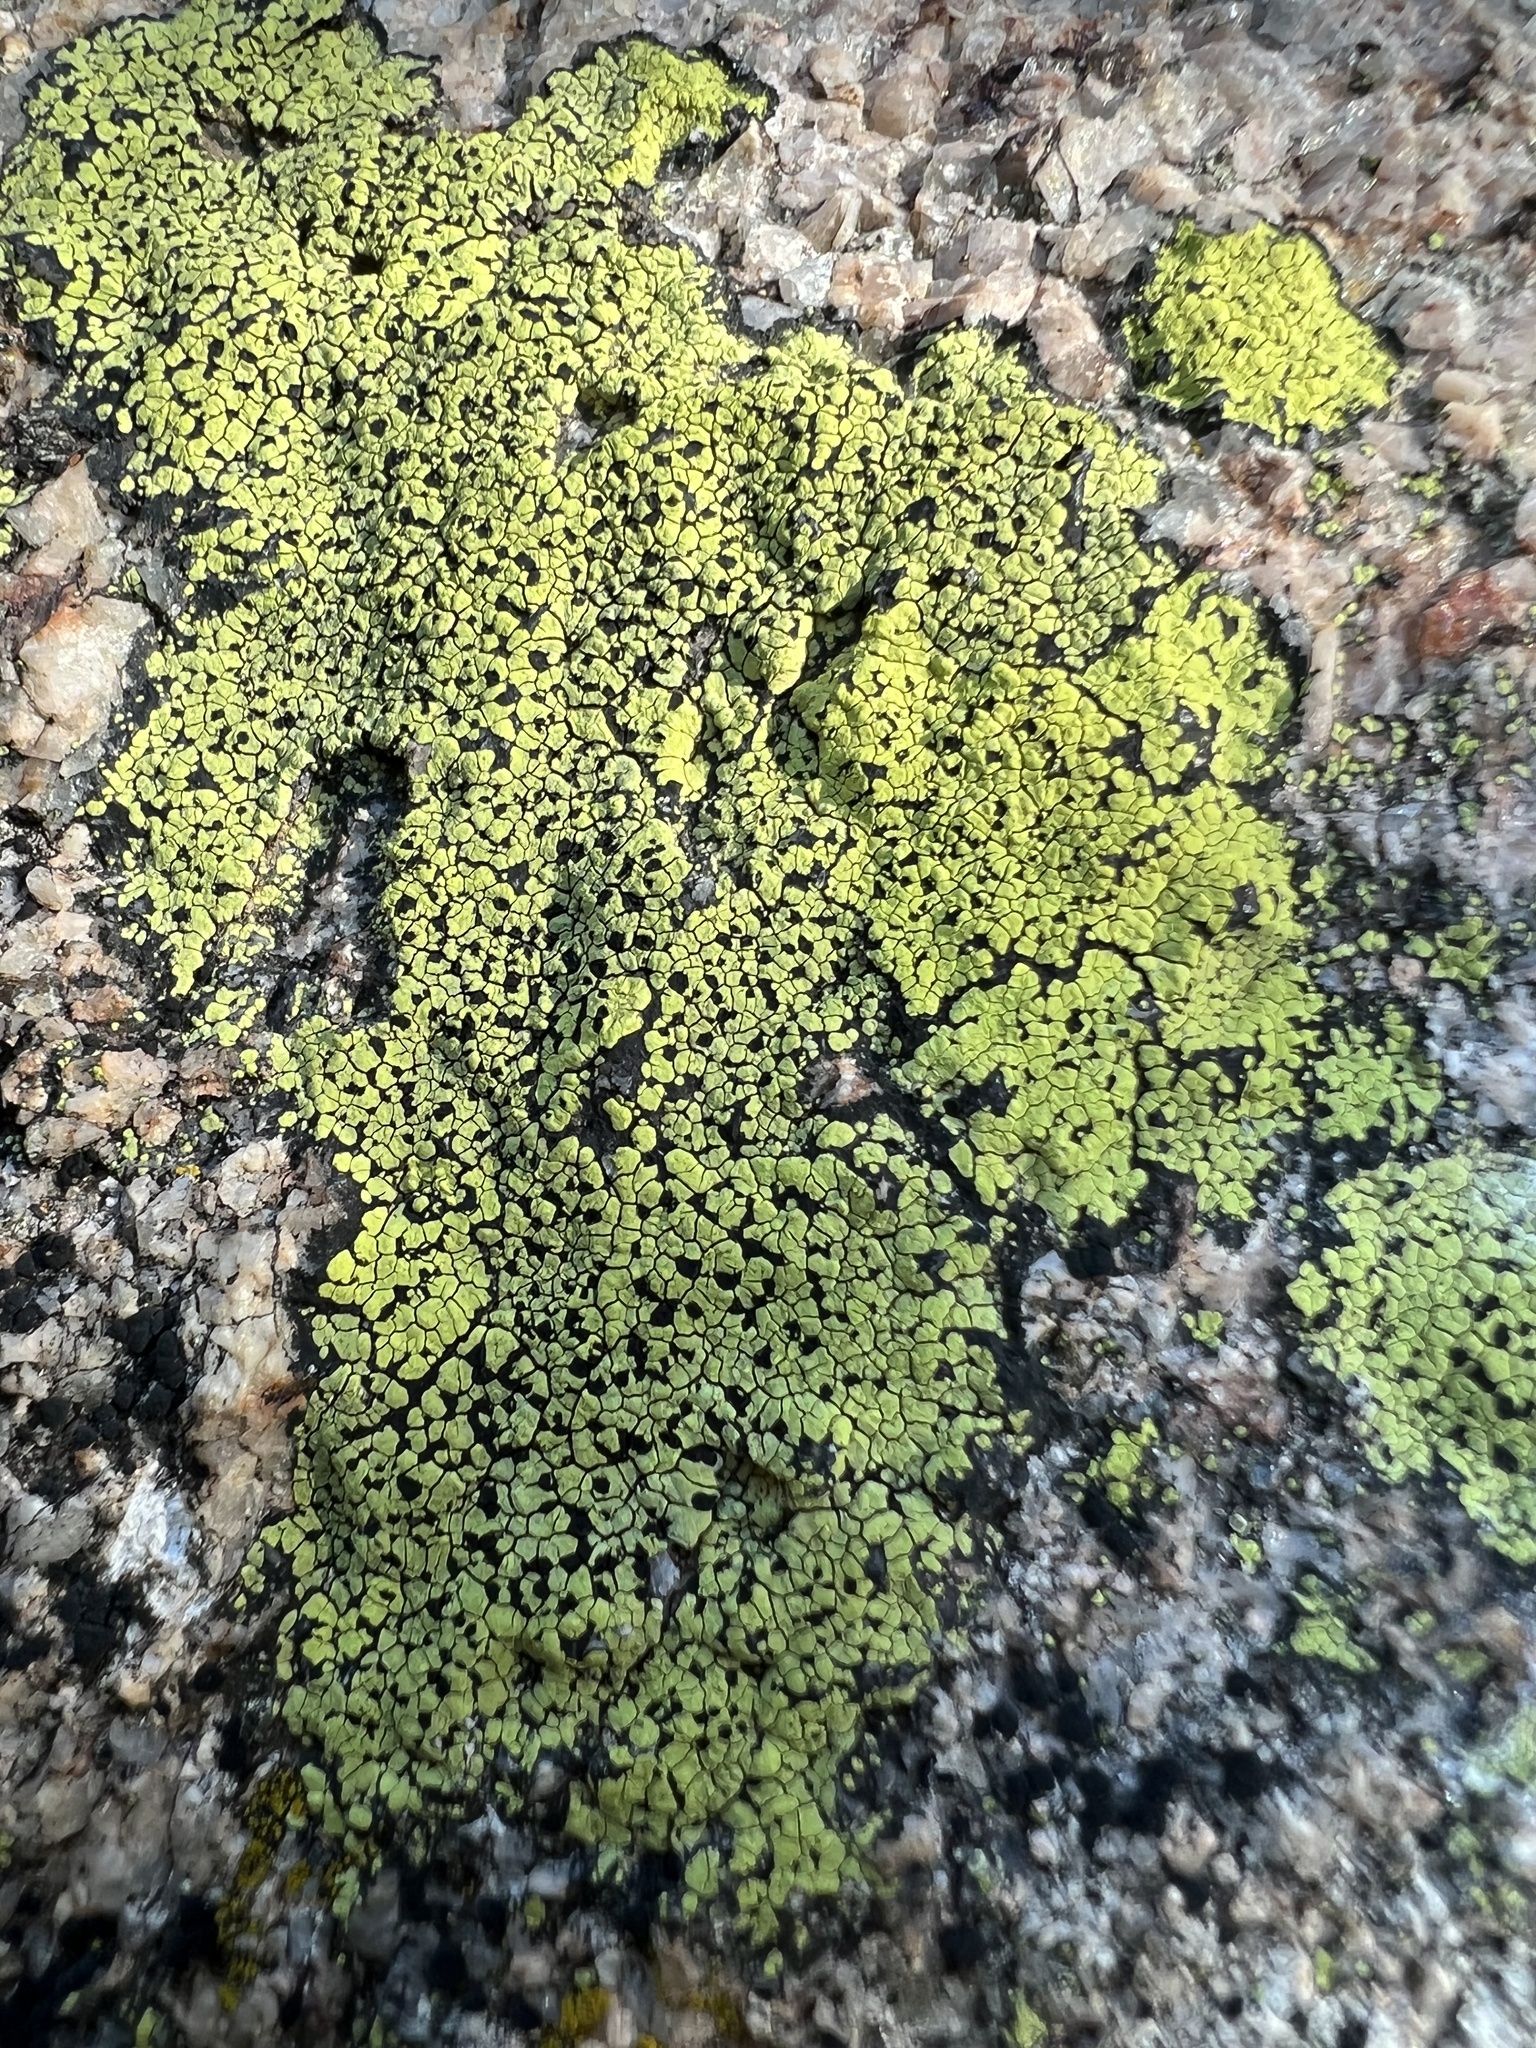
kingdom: Fungi
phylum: Ascomycota
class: Lecanoromycetes
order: Rhizocarpales
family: Rhizocarpaceae
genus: Rhizocarpon
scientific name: Rhizocarpon geographicum
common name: Yellow map lichen
